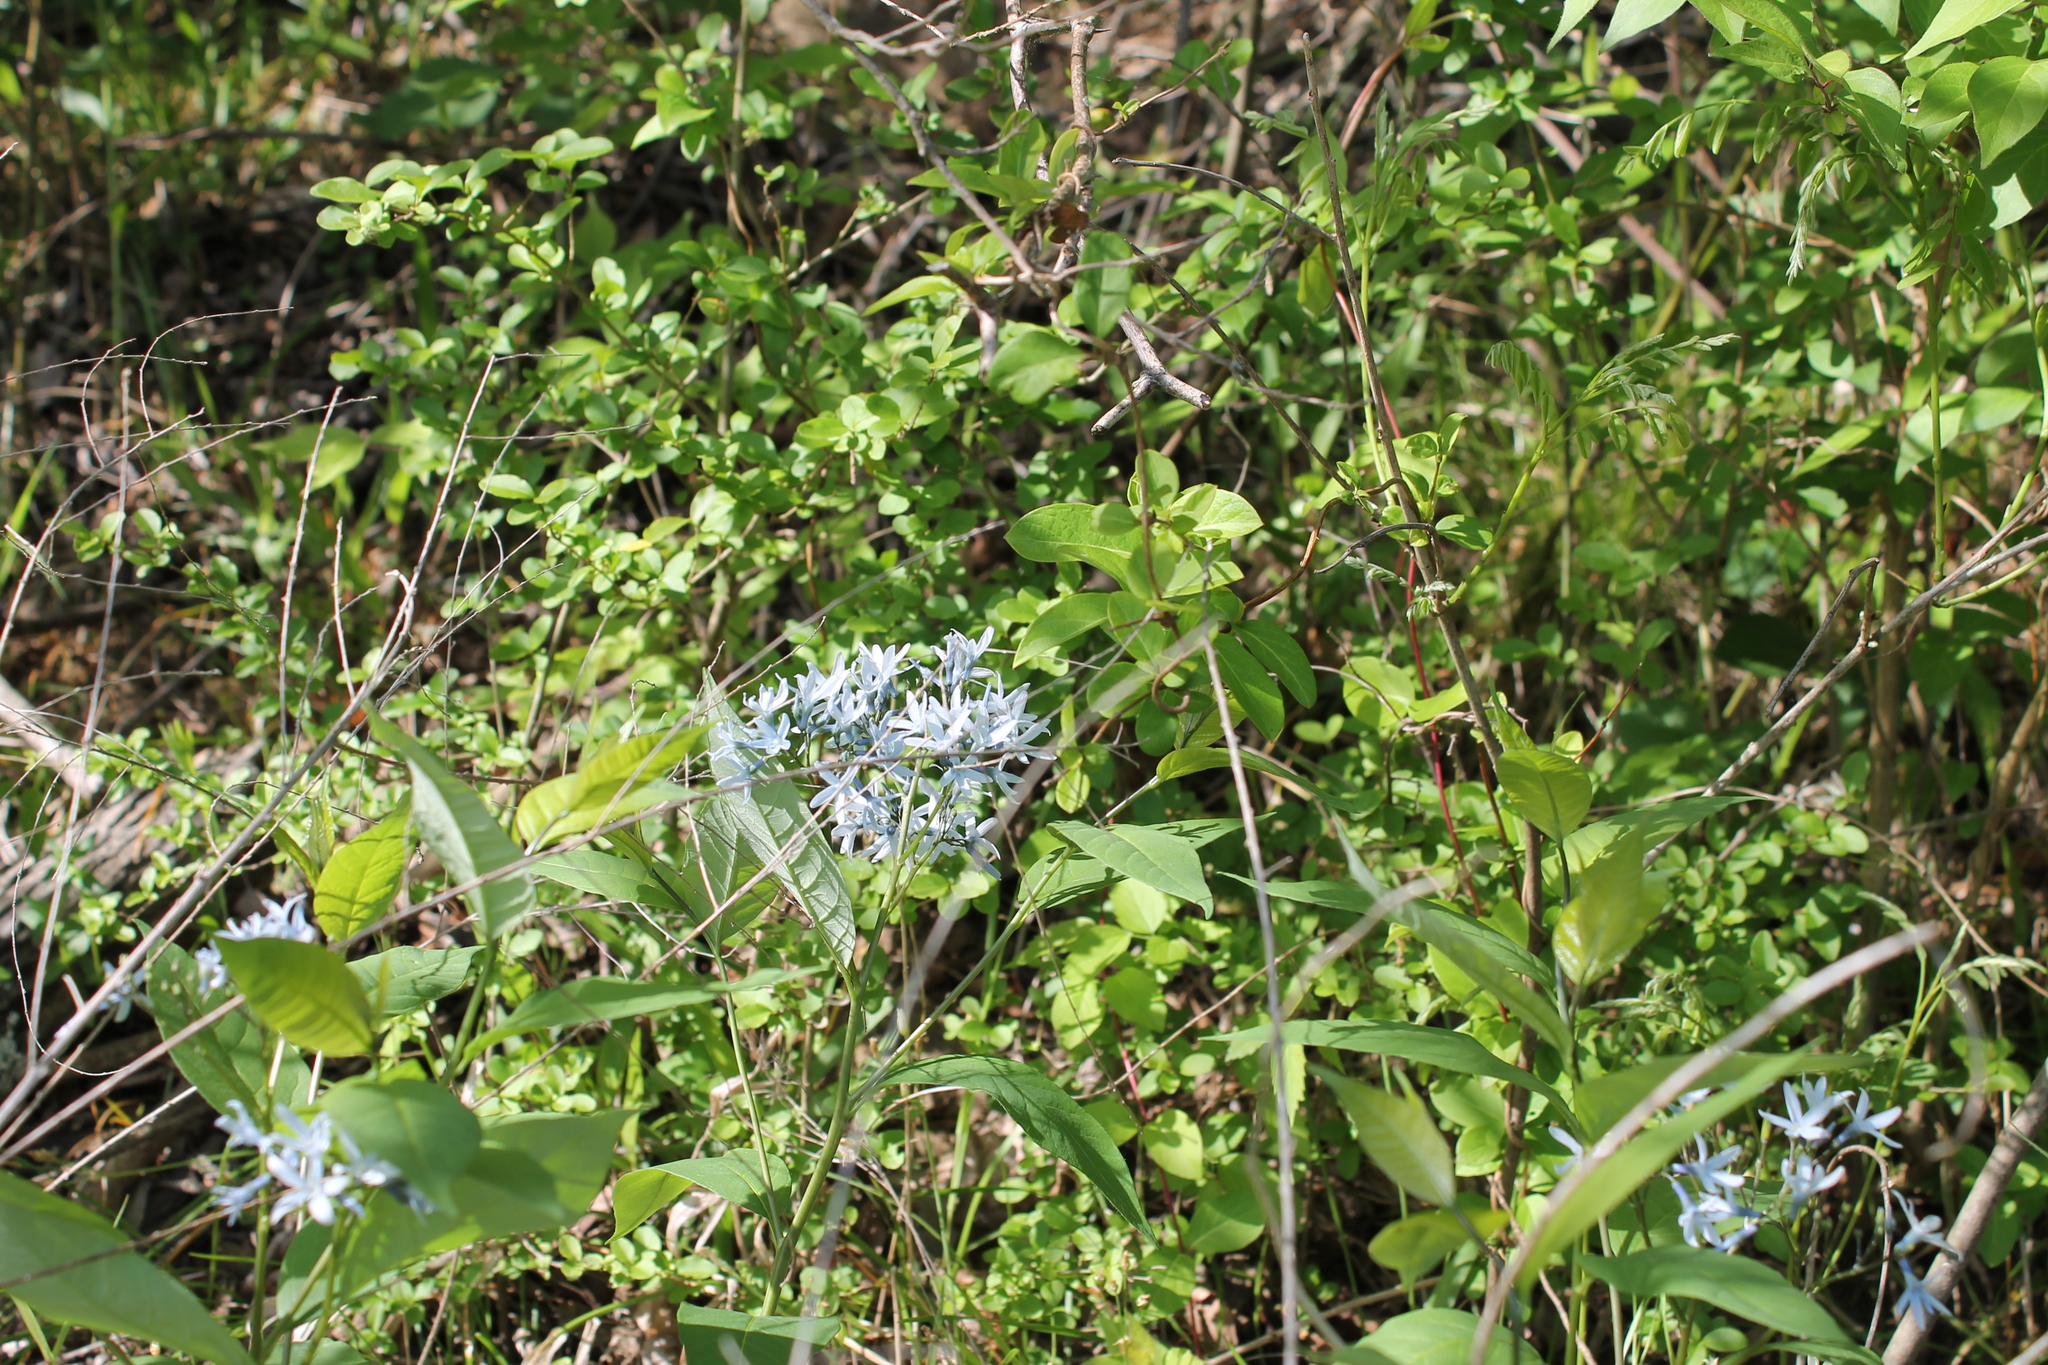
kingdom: Plantae
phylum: Tracheophyta
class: Magnoliopsida
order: Gentianales
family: Apocynaceae
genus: Amsonia
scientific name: Amsonia tabernaemontana
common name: Texas-star
